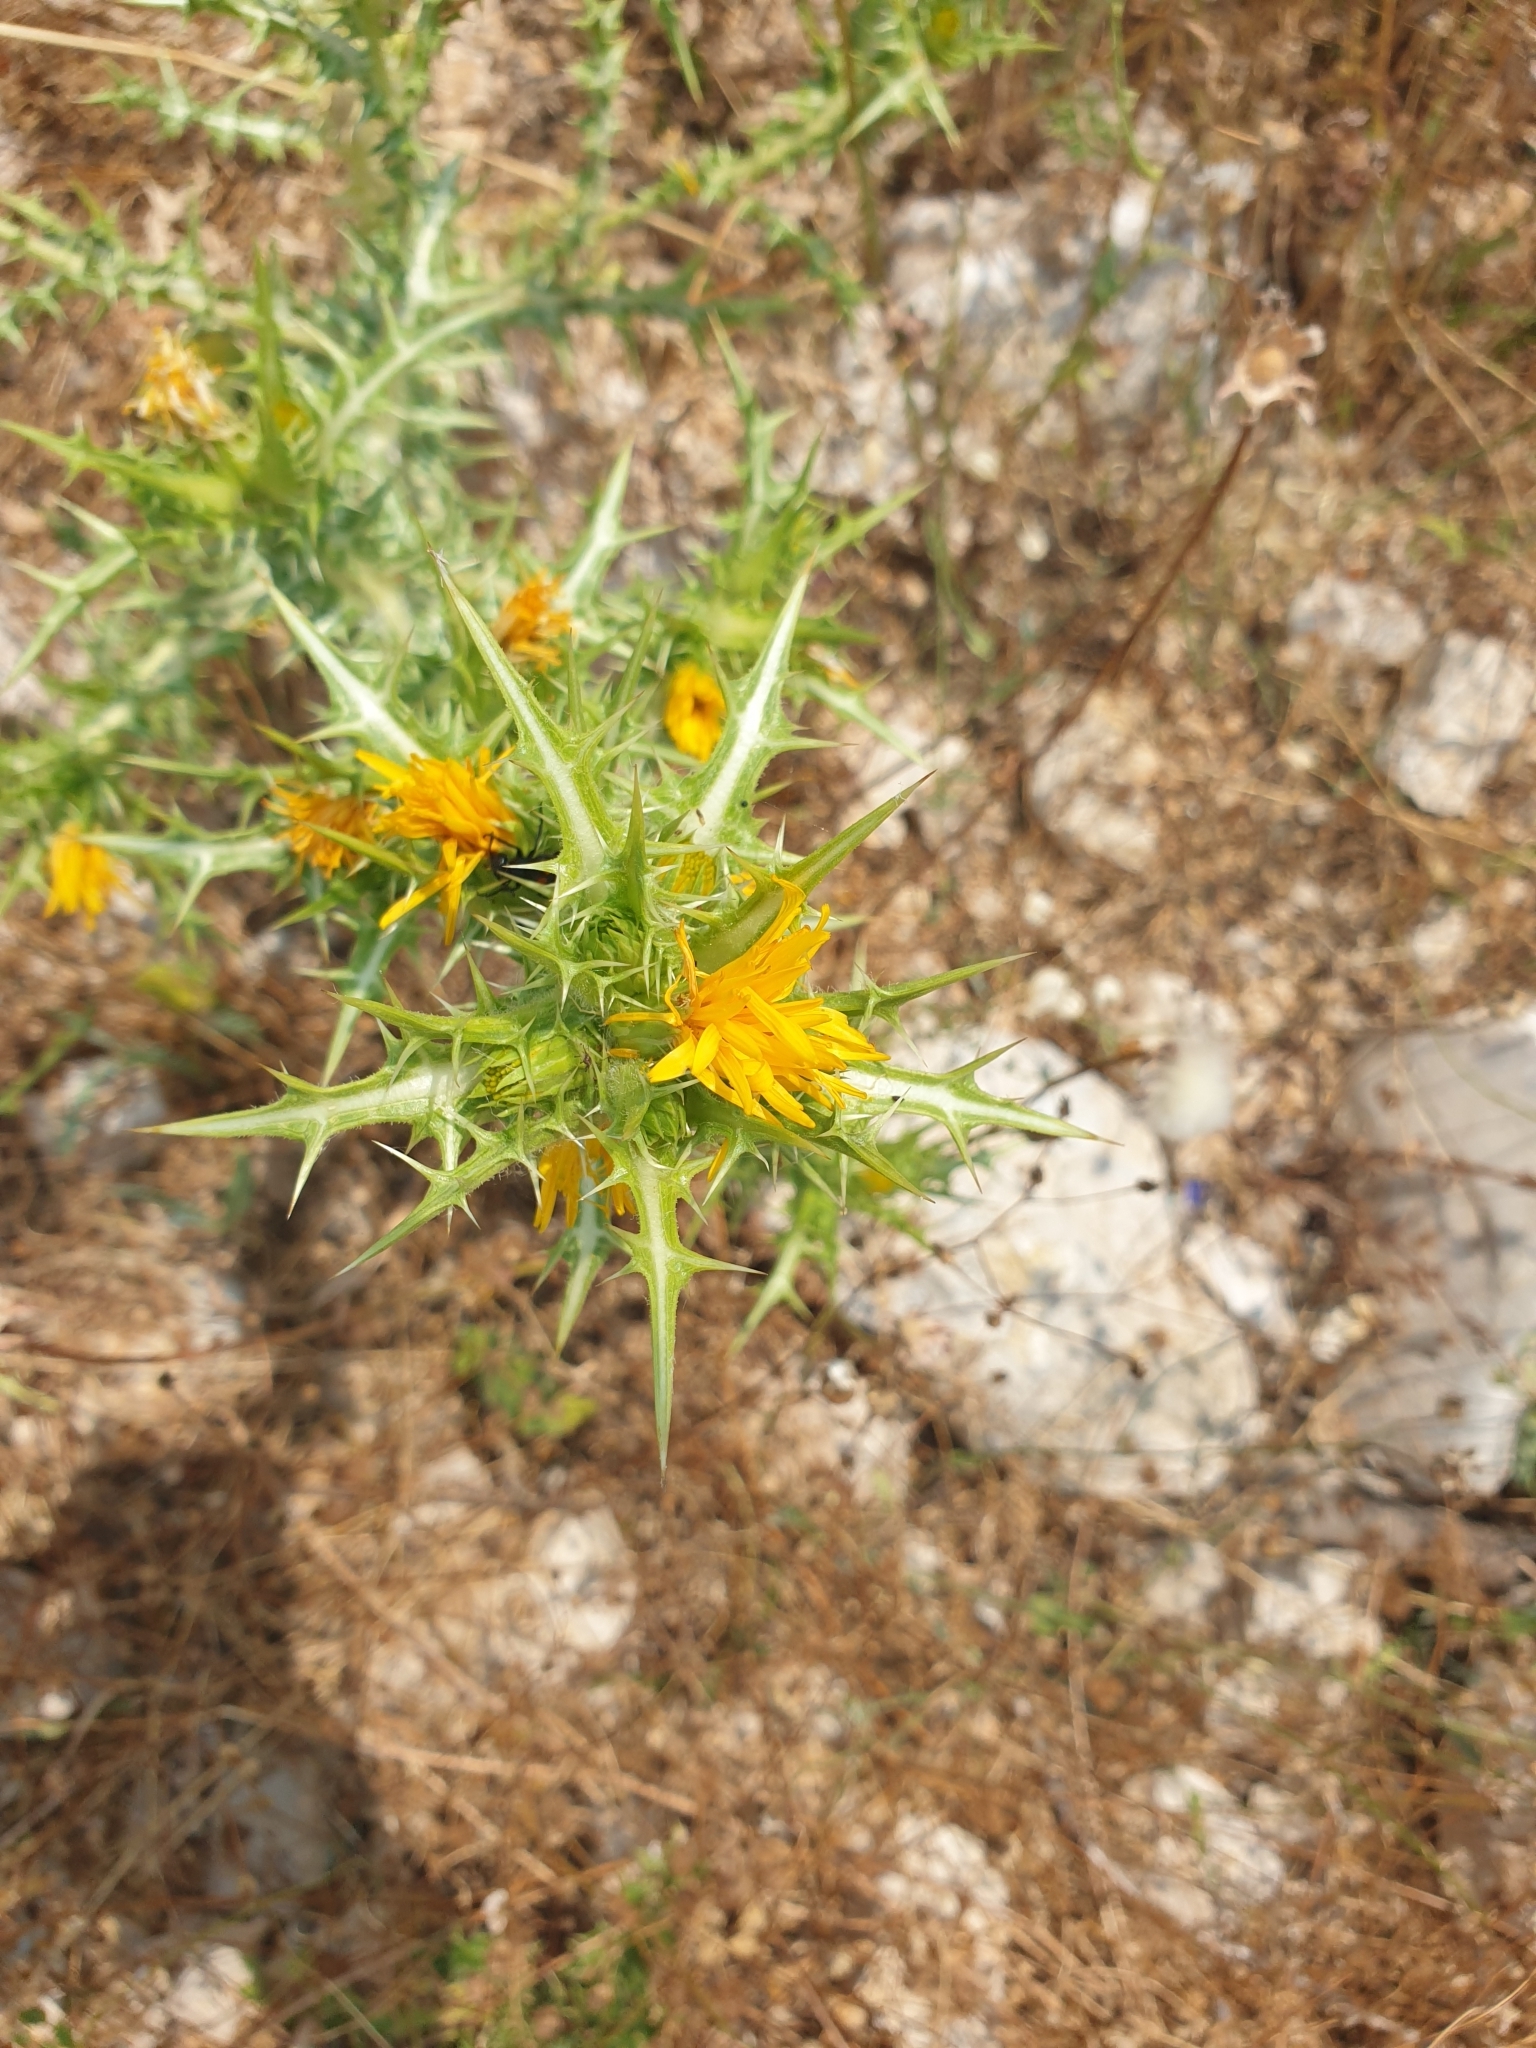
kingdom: Plantae
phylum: Tracheophyta
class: Magnoliopsida
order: Asterales
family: Asteraceae
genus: Scolymus
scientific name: Scolymus hispanicus
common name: Golden thistle
